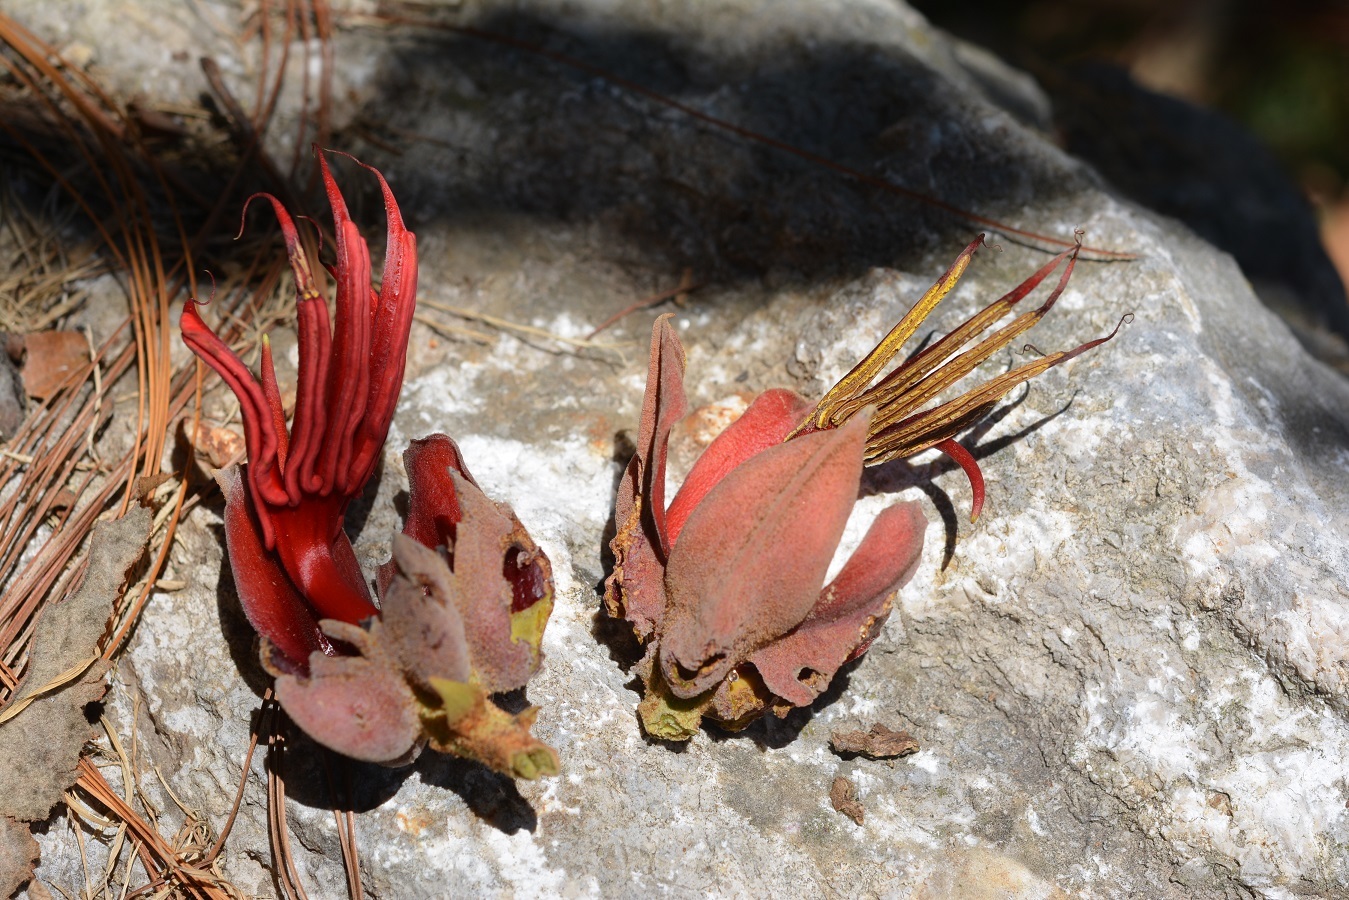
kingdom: Plantae
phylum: Tracheophyta
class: Magnoliopsida
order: Malvales
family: Malvaceae
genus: Chiranthodendron
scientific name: Chiranthodendron pentadactylon
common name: Mexican-hat-plant
